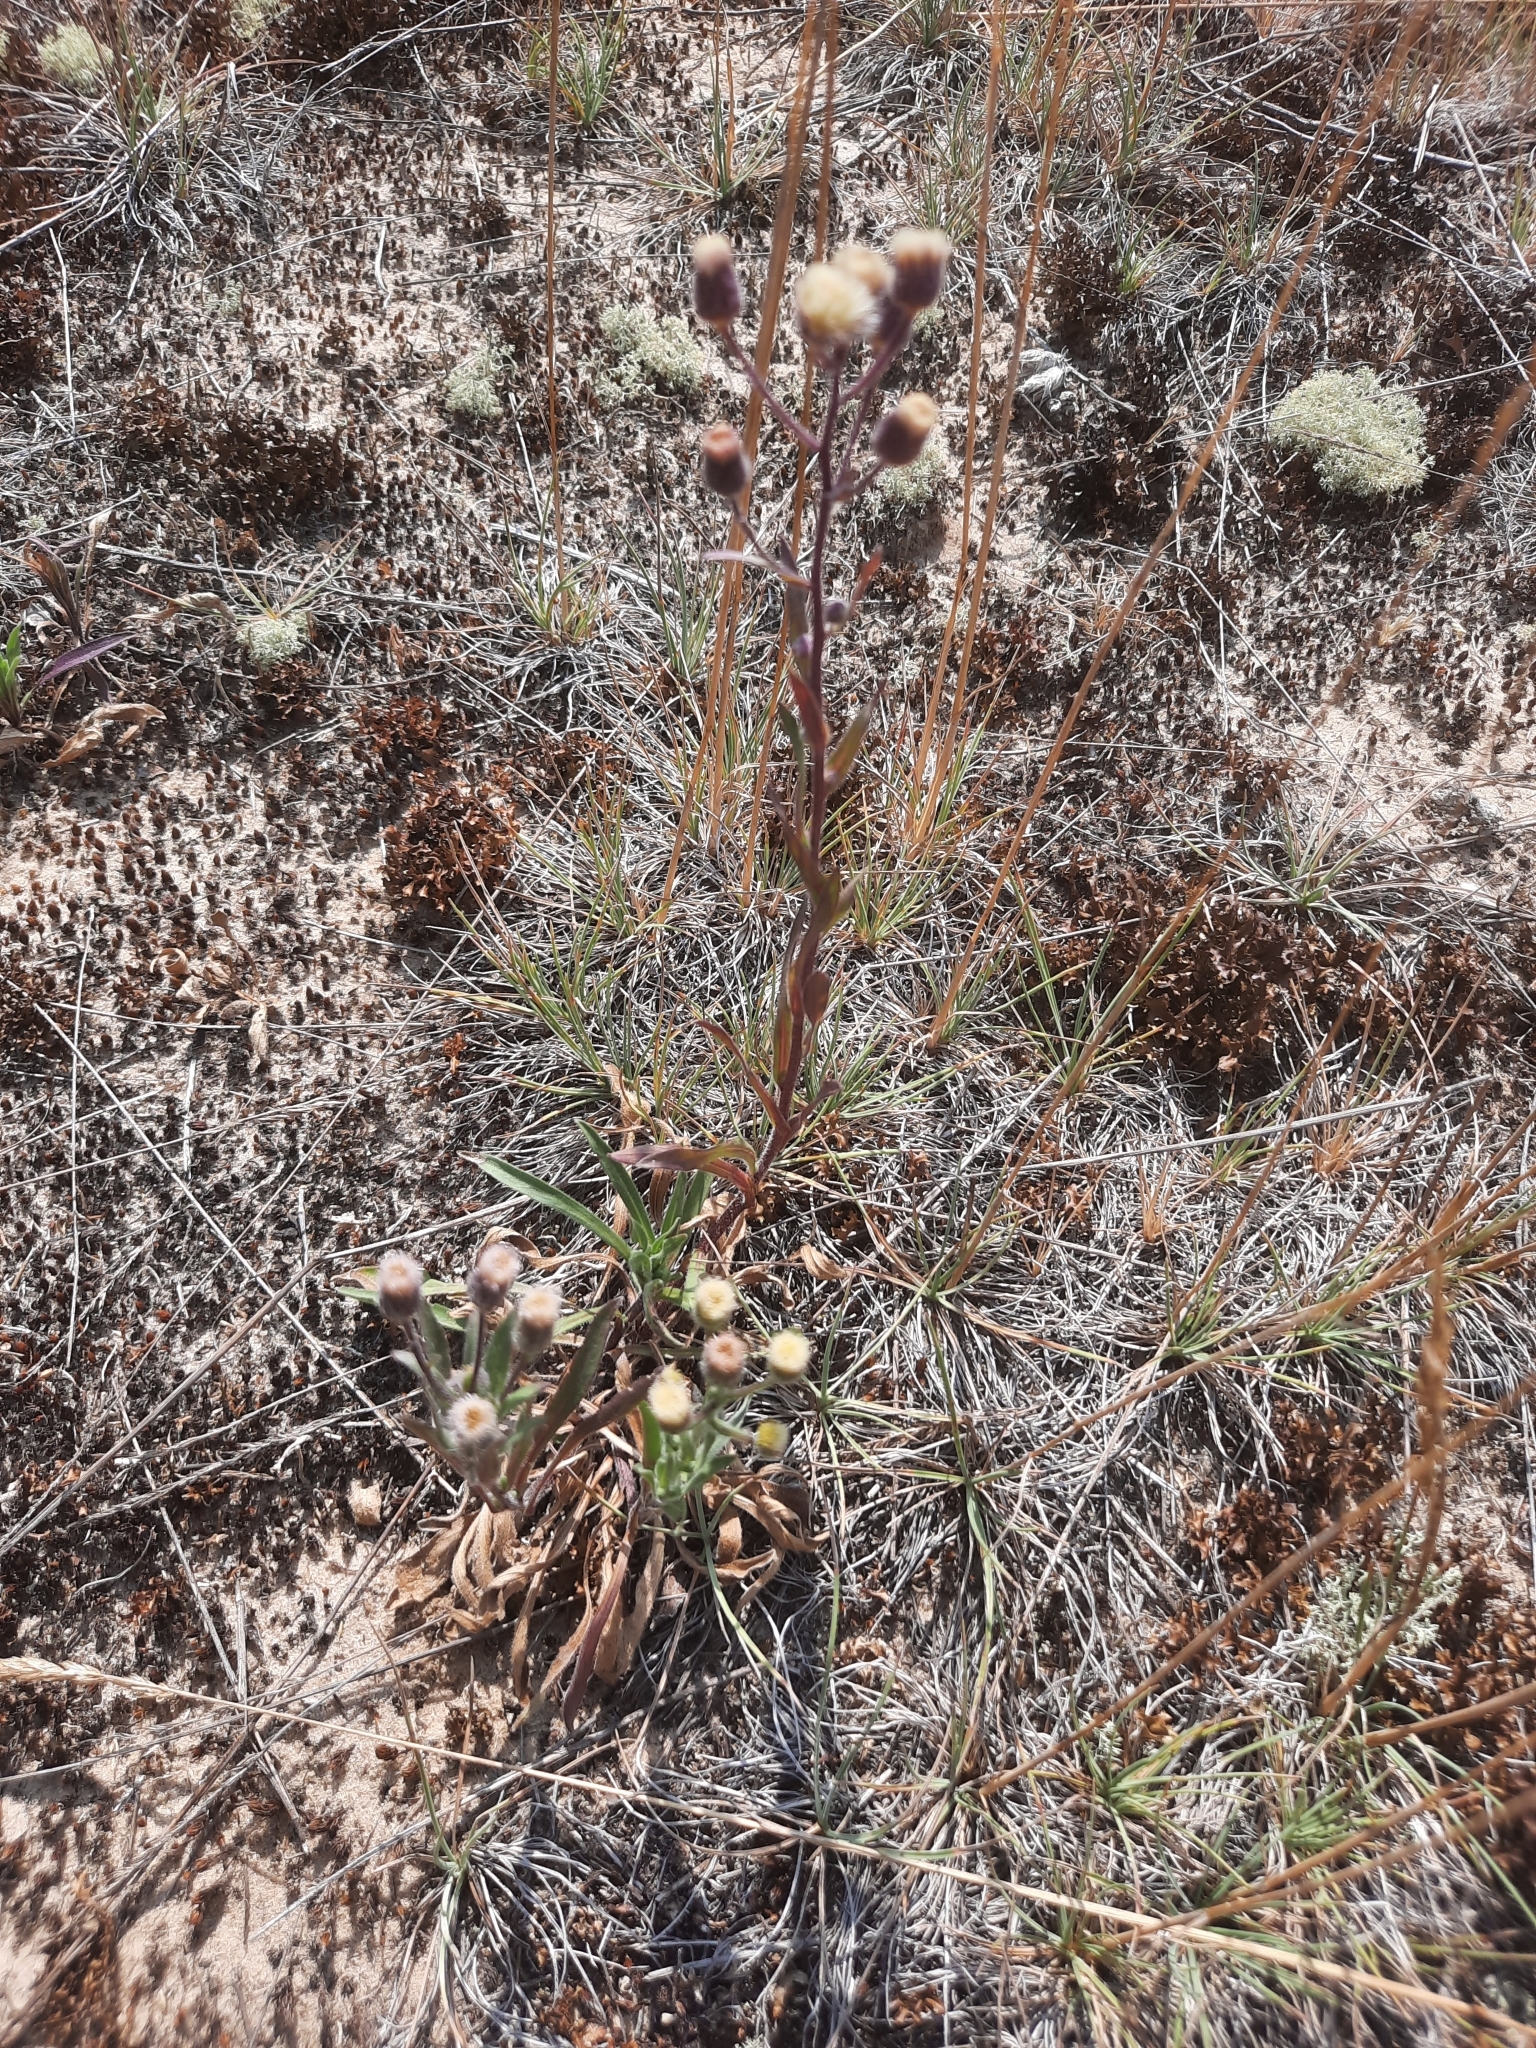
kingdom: Plantae
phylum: Tracheophyta
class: Magnoliopsida
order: Asterales
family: Asteraceae
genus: Erigeron
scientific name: Erigeron acris
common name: Blue fleabane
